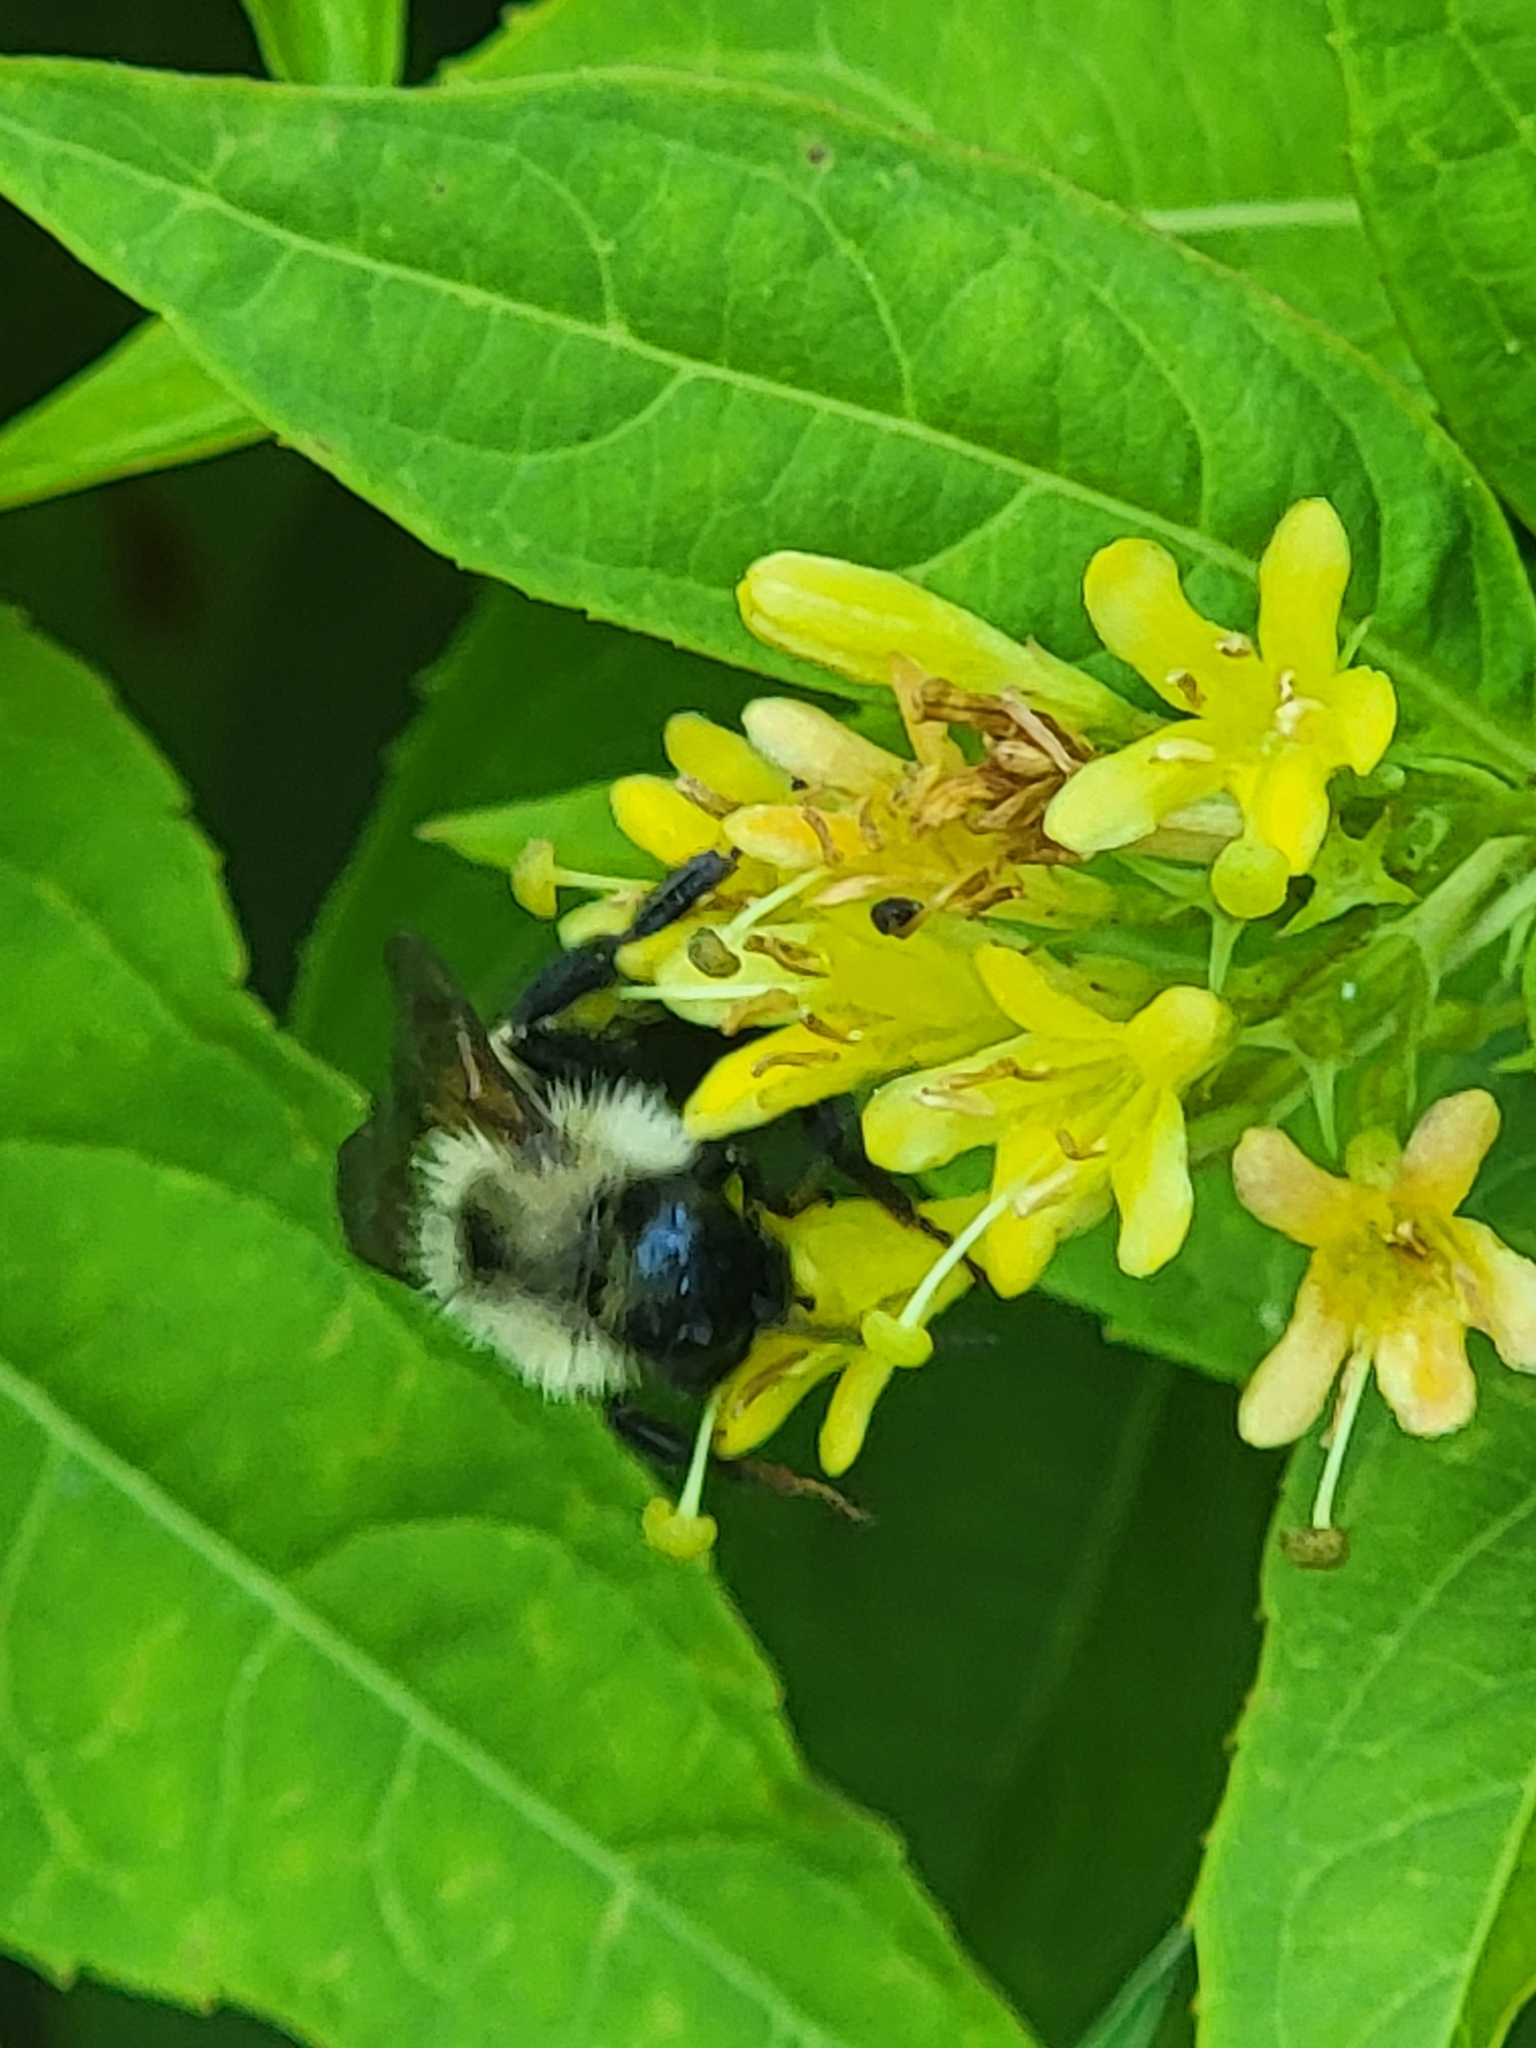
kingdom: Animalia
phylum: Arthropoda
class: Insecta
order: Hymenoptera
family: Apidae
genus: Bombus
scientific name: Bombus citrinus
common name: Lemon cuckoo bumble bee
